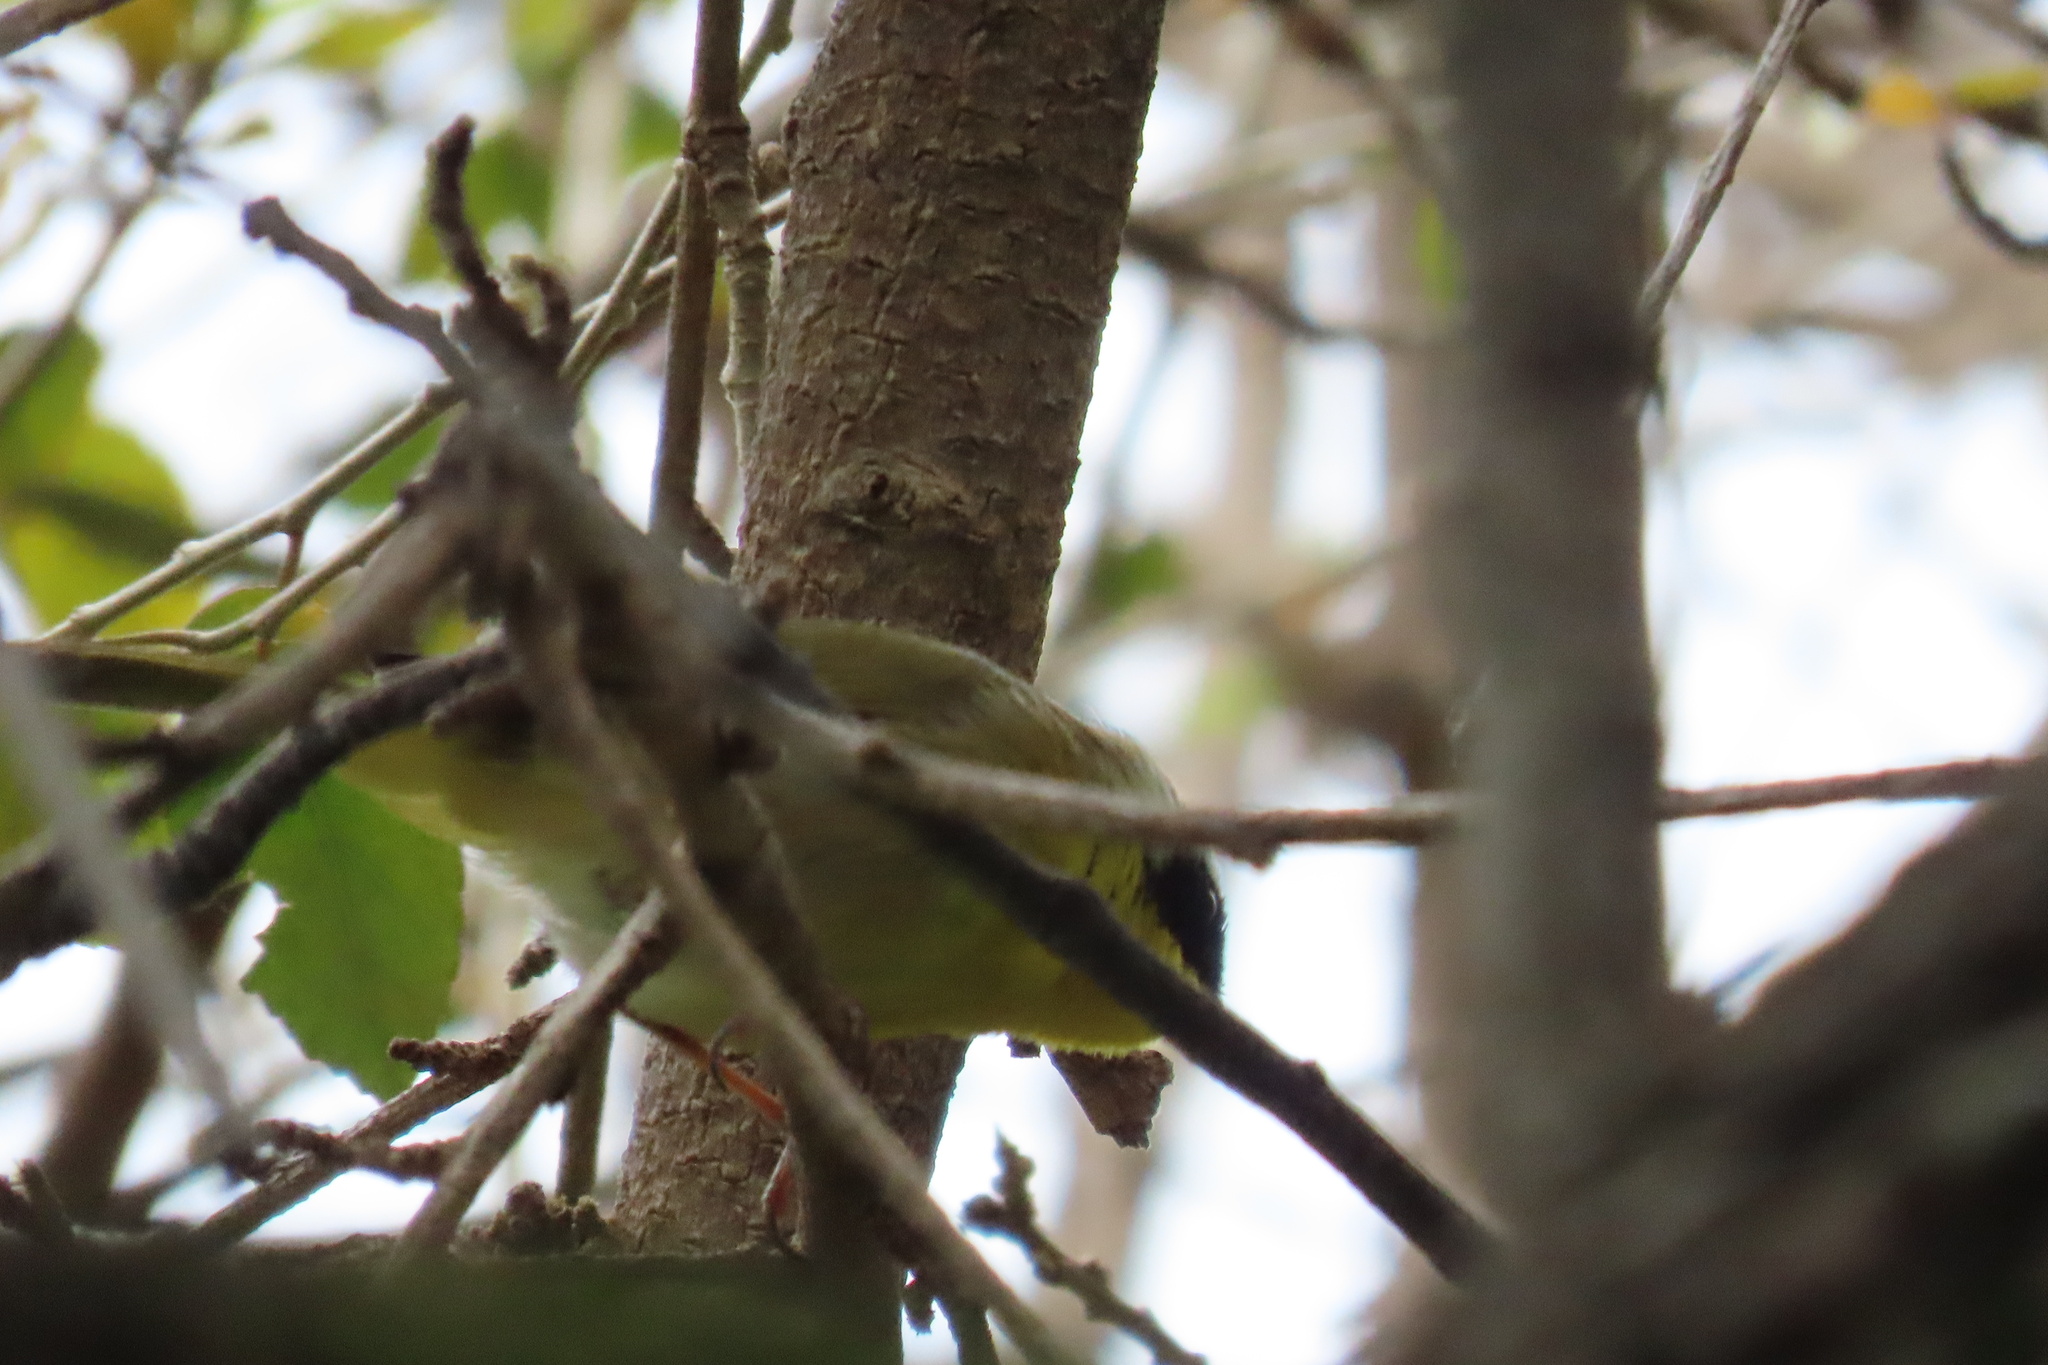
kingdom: Animalia
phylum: Chordata
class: Aves
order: Passeriformes
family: Parulidae
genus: Geothlypis
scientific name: Geothlypis trichas
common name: Common yellowthroat
